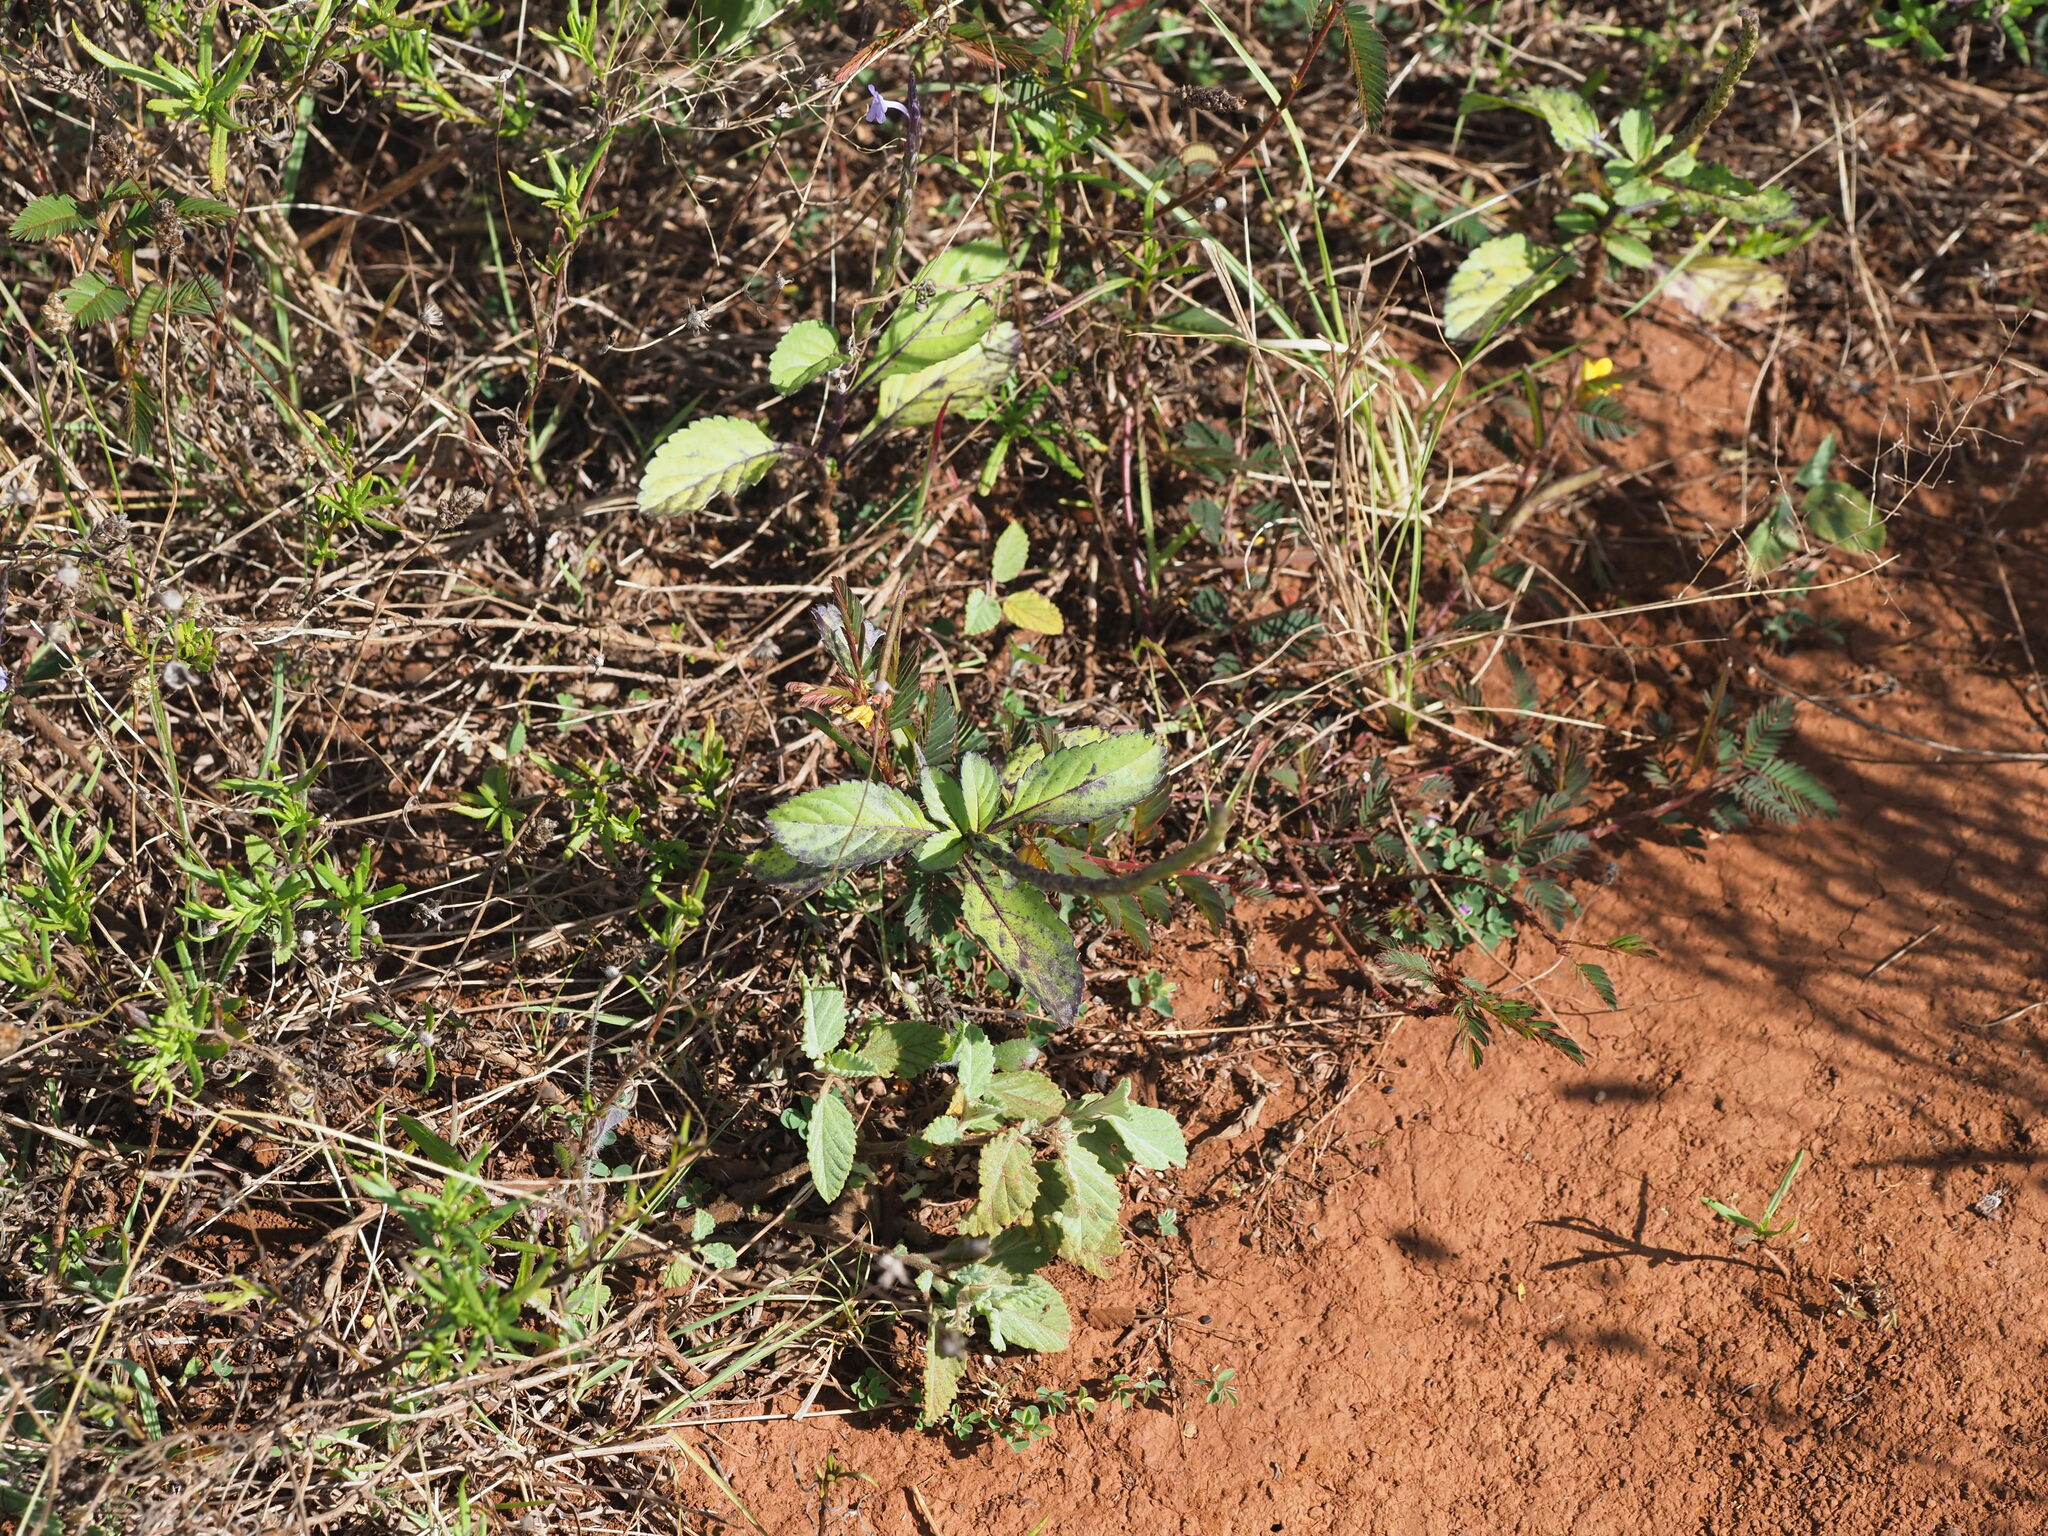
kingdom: Plantae
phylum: Tracheophyta
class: Magnoliopsida
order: Lamiales
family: Verbenaceae
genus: Stachytarpheta
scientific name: Stachytarpheta jamaicensis
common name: Light-blue snakeweed
